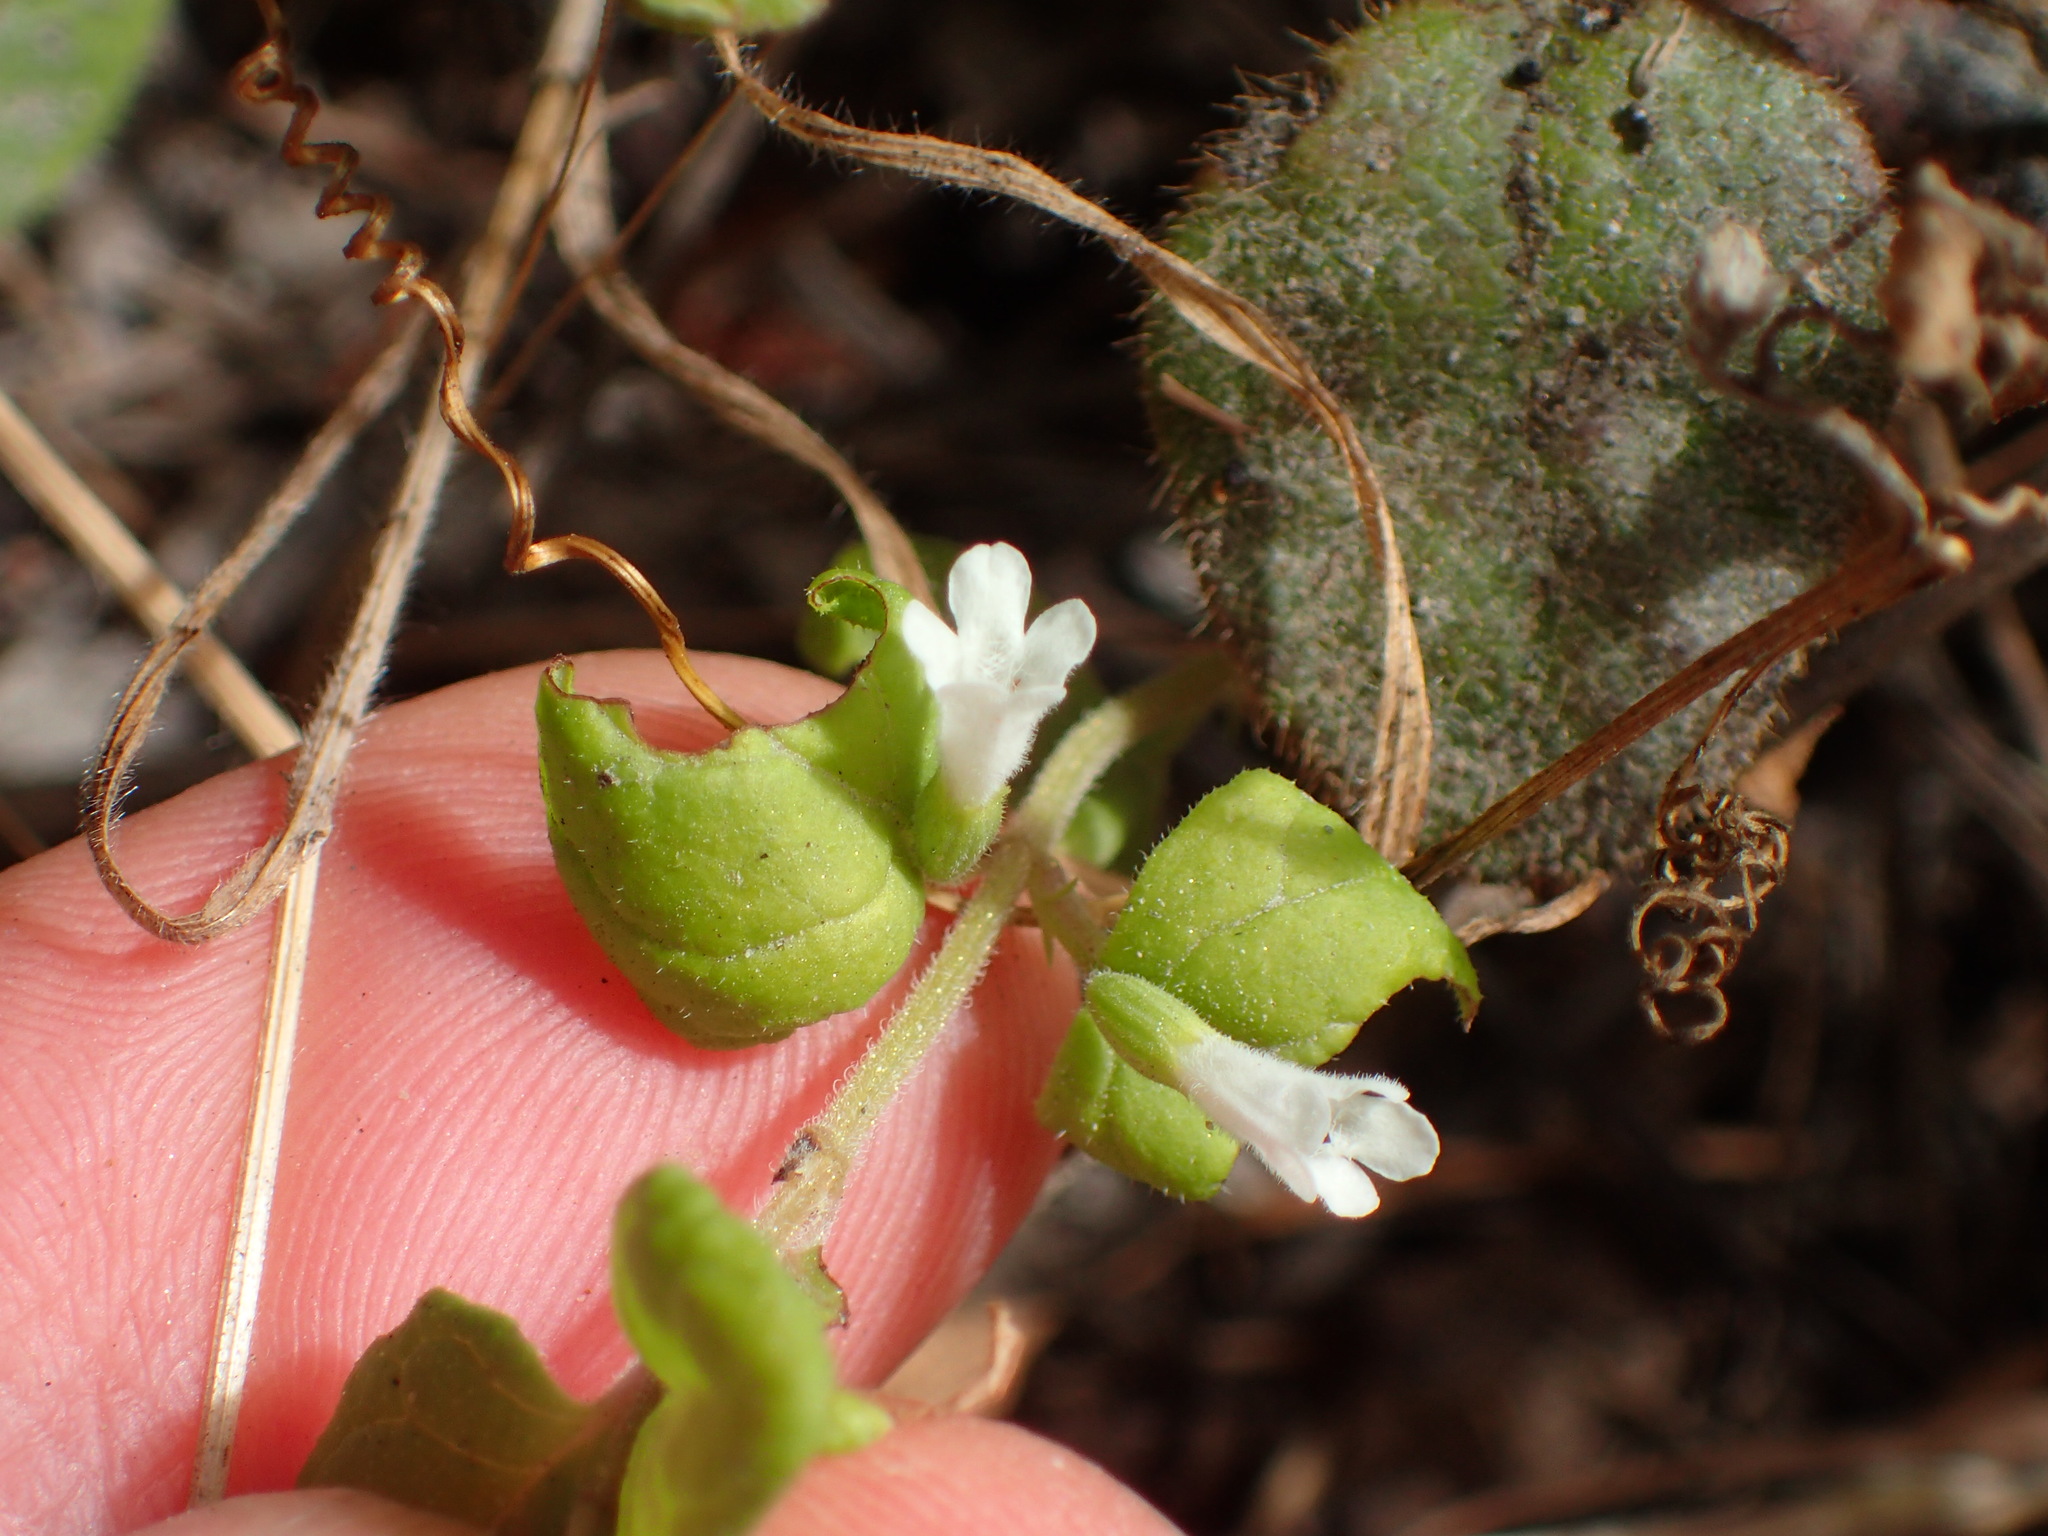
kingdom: Plantae
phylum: Tracheophyta
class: Magnoliopsida
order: Lamiales
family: Lamiaceae
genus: Micromeria
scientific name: Micromeria douglasii
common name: Yerba buena
